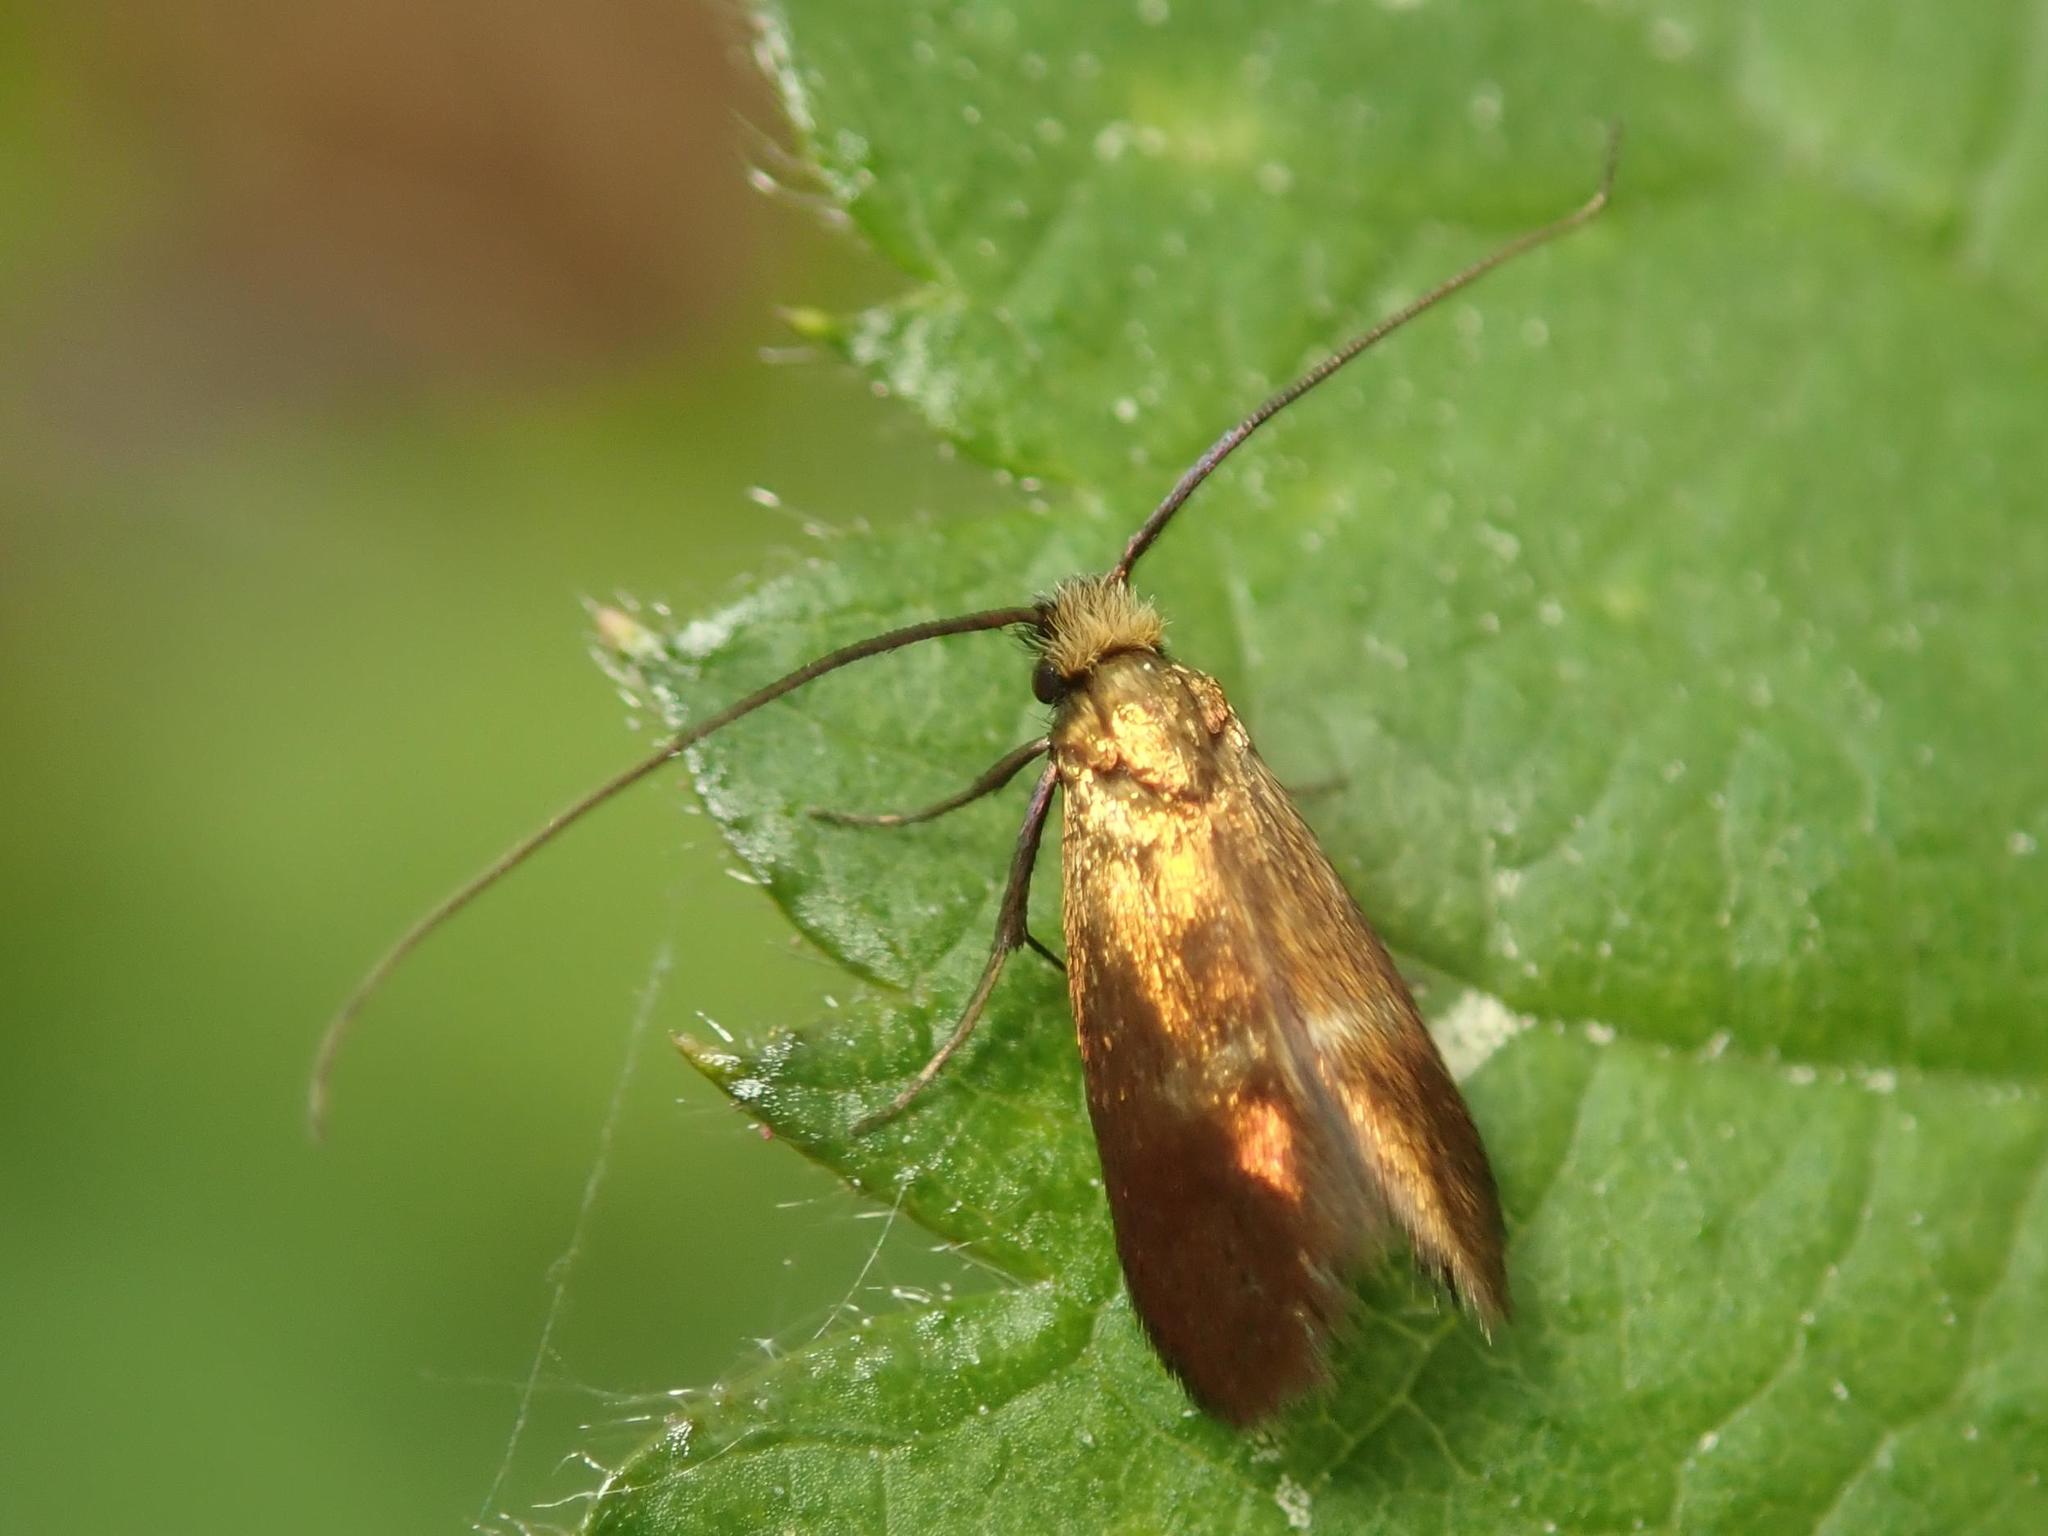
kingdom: Animalia
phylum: Arthropoda
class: Insecta
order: Lepidoptera
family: Adelidae
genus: Cauchas
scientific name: Cauchas rufimitrella
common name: Meadow long-horn
